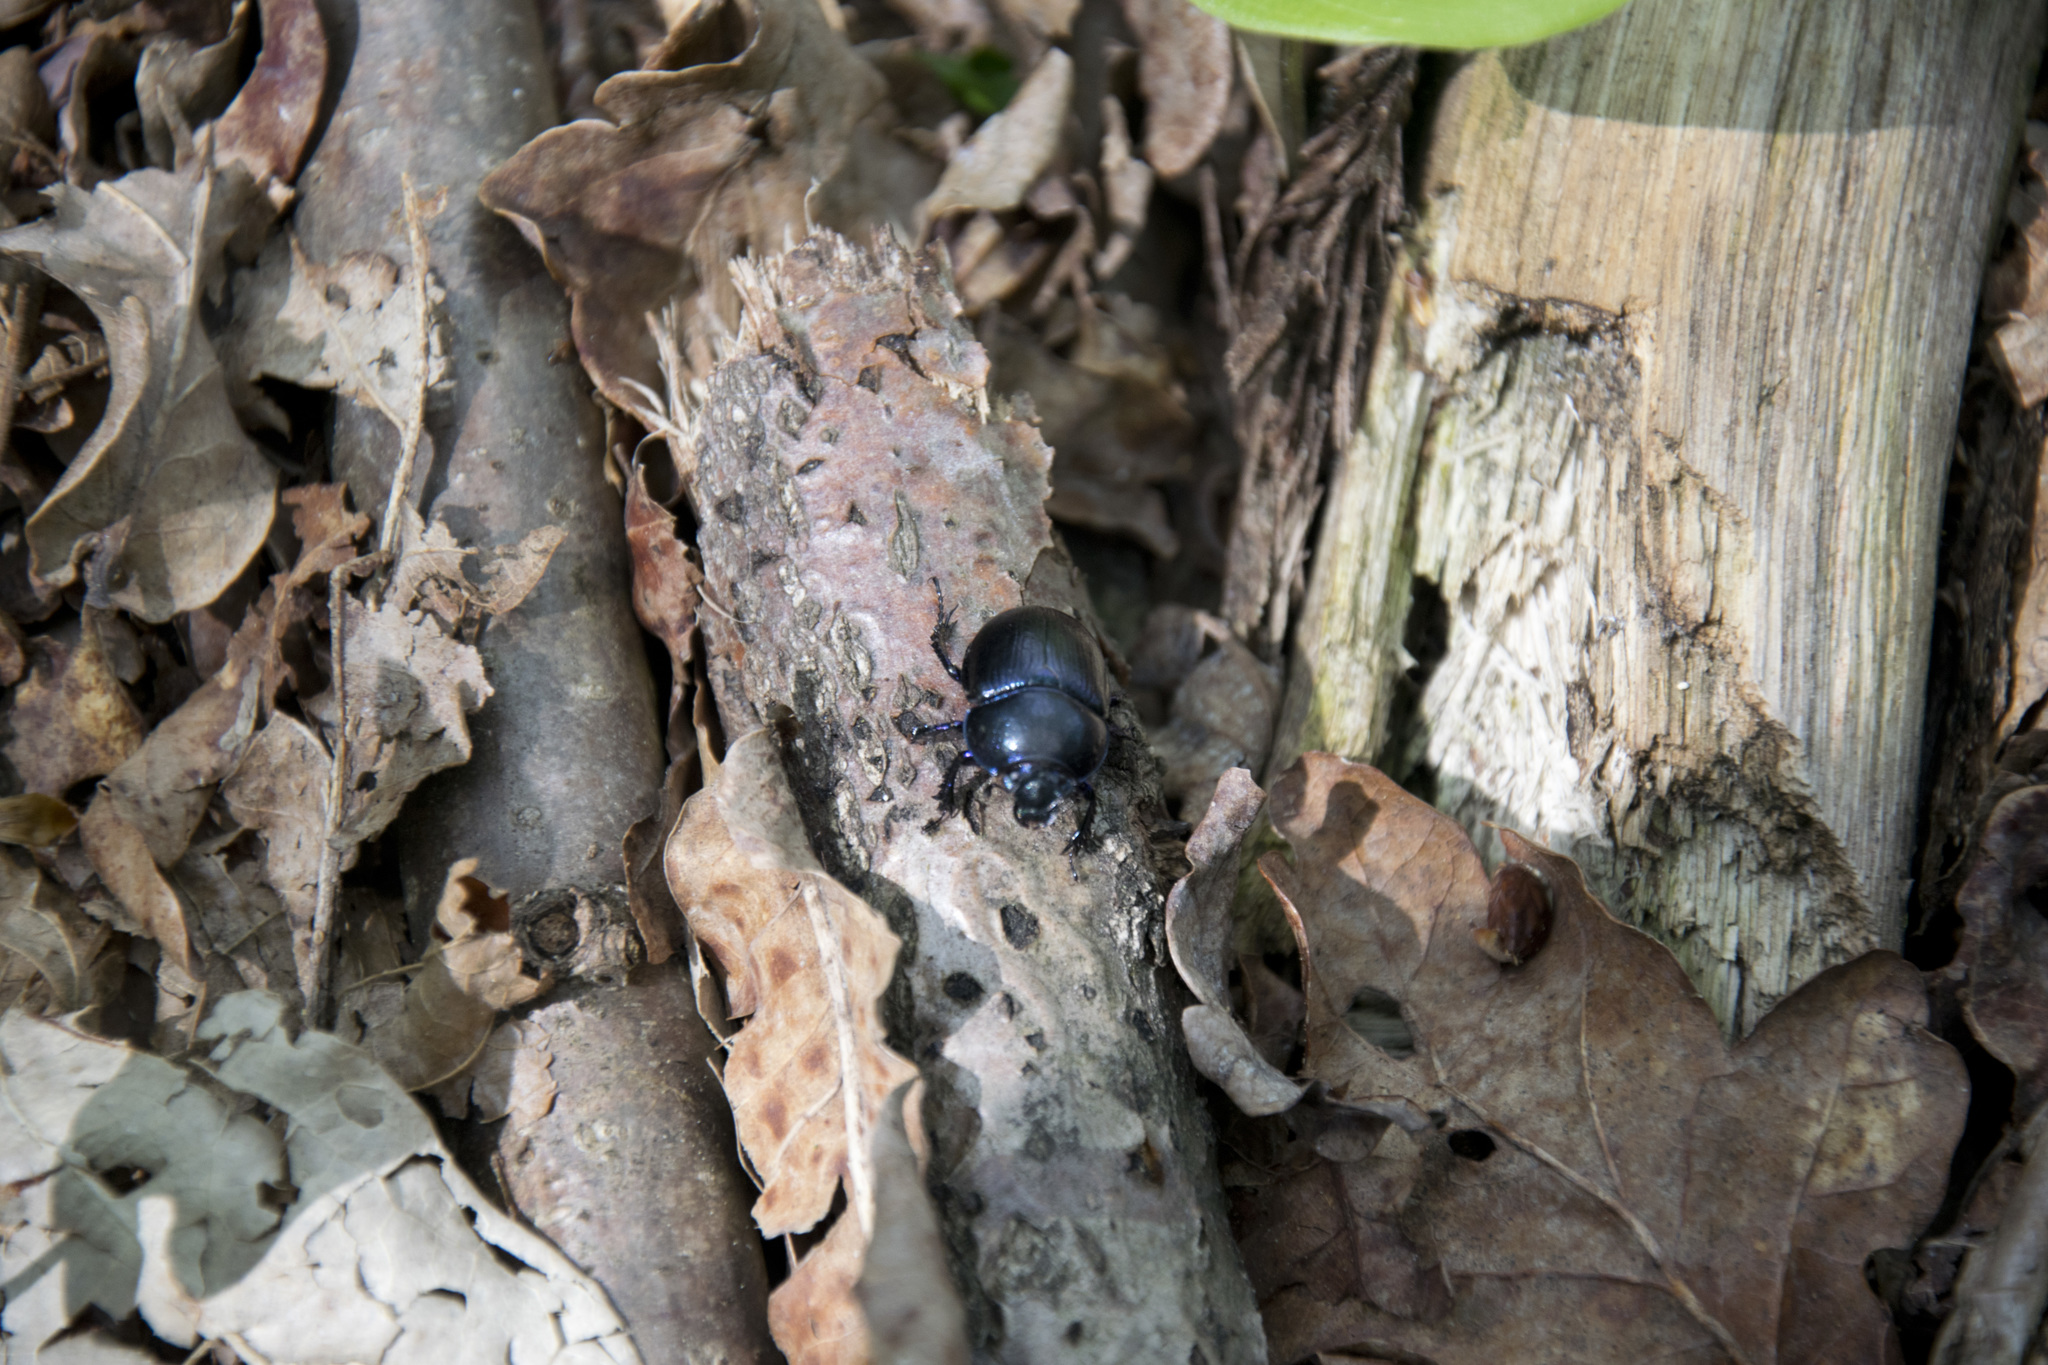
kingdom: Animalia
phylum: Arthropoda
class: Insecta
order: Coleoptera
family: Geotrupidae
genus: Anoplotrupes
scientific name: Anoplotrupes stercorosus
